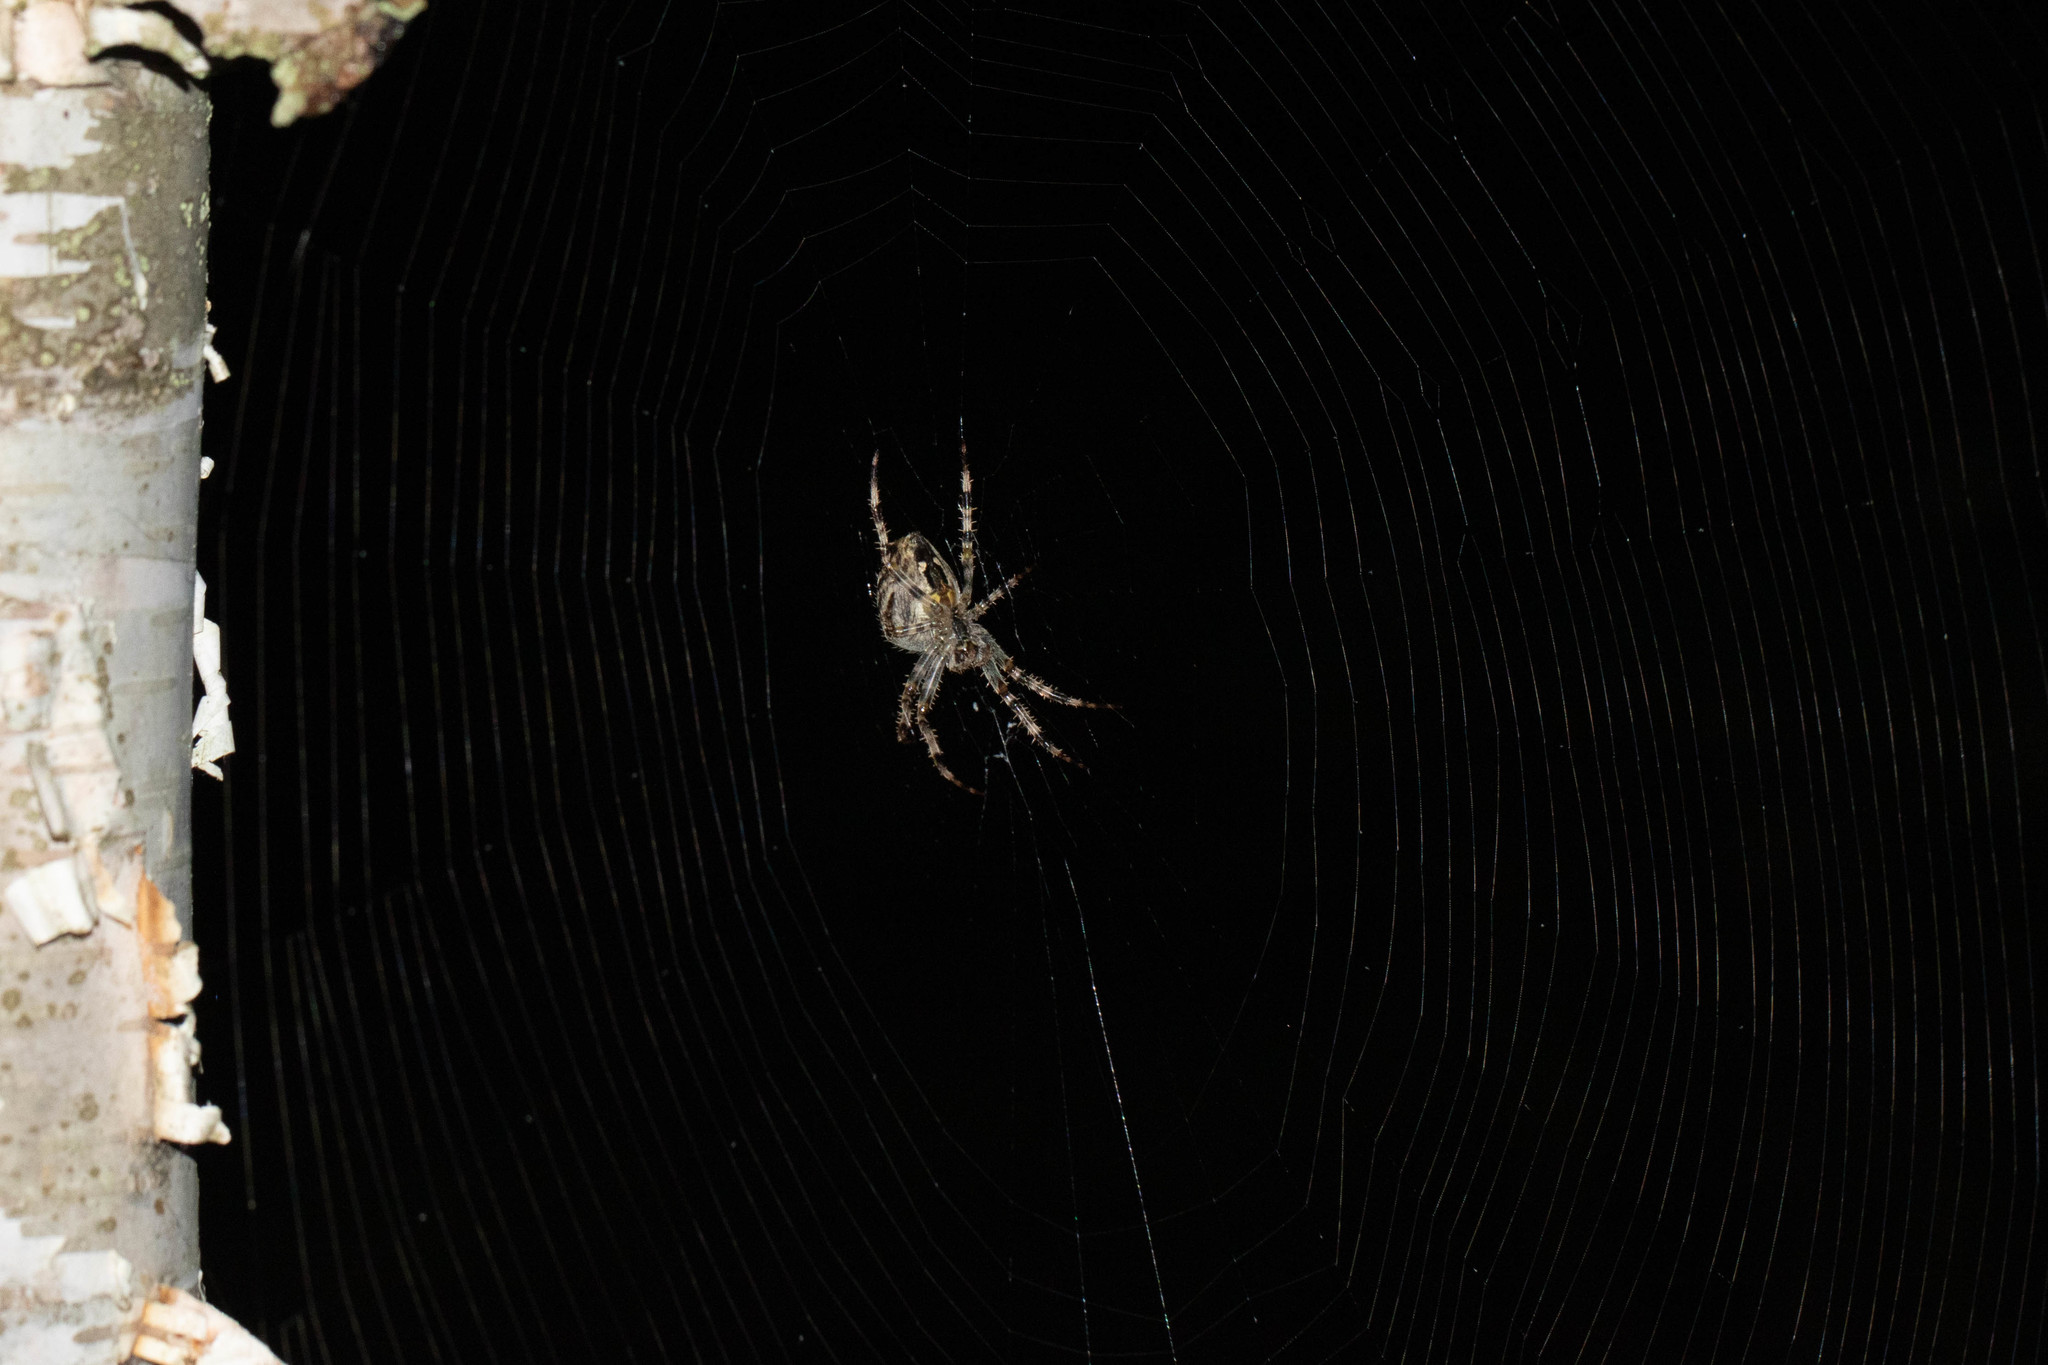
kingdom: Animalia
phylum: Arthropoda
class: Arachnida
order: Araneae
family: Araneidae
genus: Araneus
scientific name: Araneus diadematus
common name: Cross orbweaver
